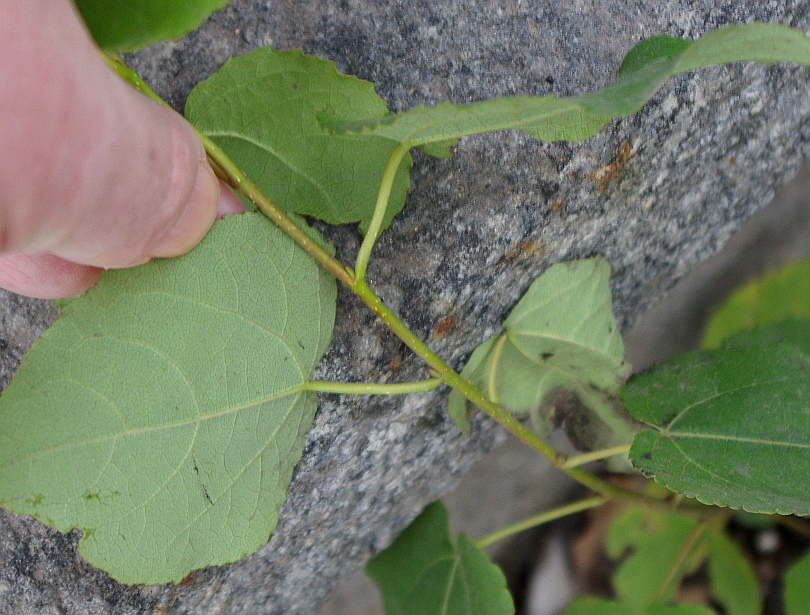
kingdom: Plantae
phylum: Tracheophyta
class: Magnoliopsida
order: Malpighiales
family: Salicaceae
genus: Populus
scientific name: Populus
